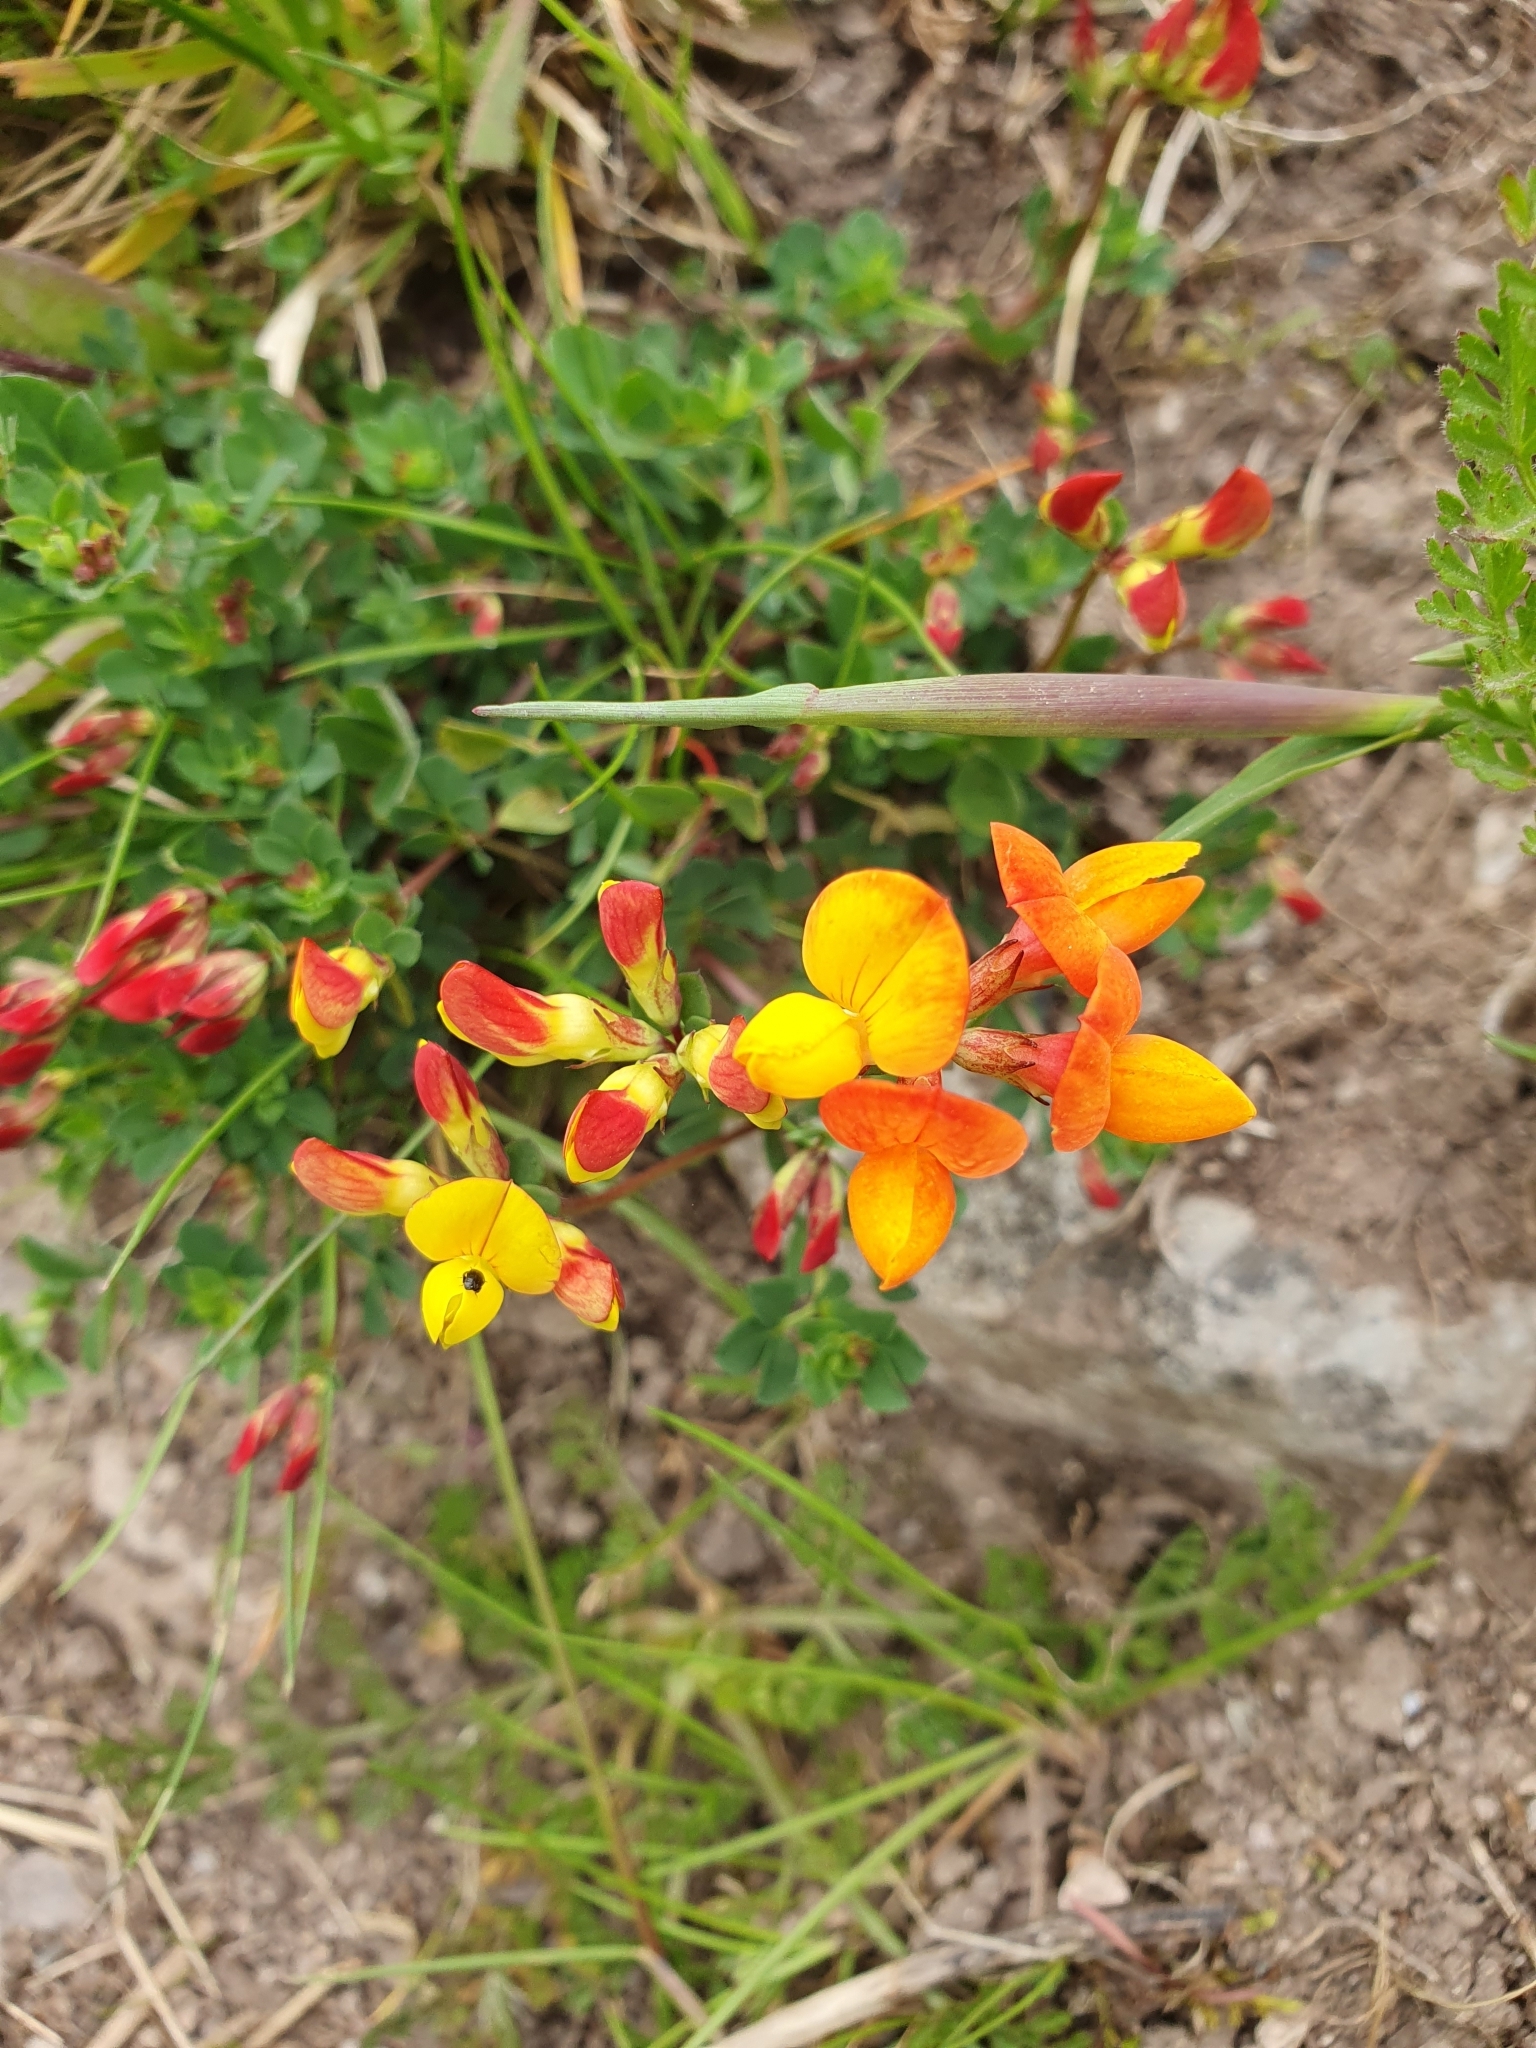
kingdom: Plantae
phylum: Tracheophyta
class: Magnoliopsida
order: Fabales
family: Fabaceae
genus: Lotus
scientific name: Lotus corniculatus
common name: Common bird's-foot-trefoil
